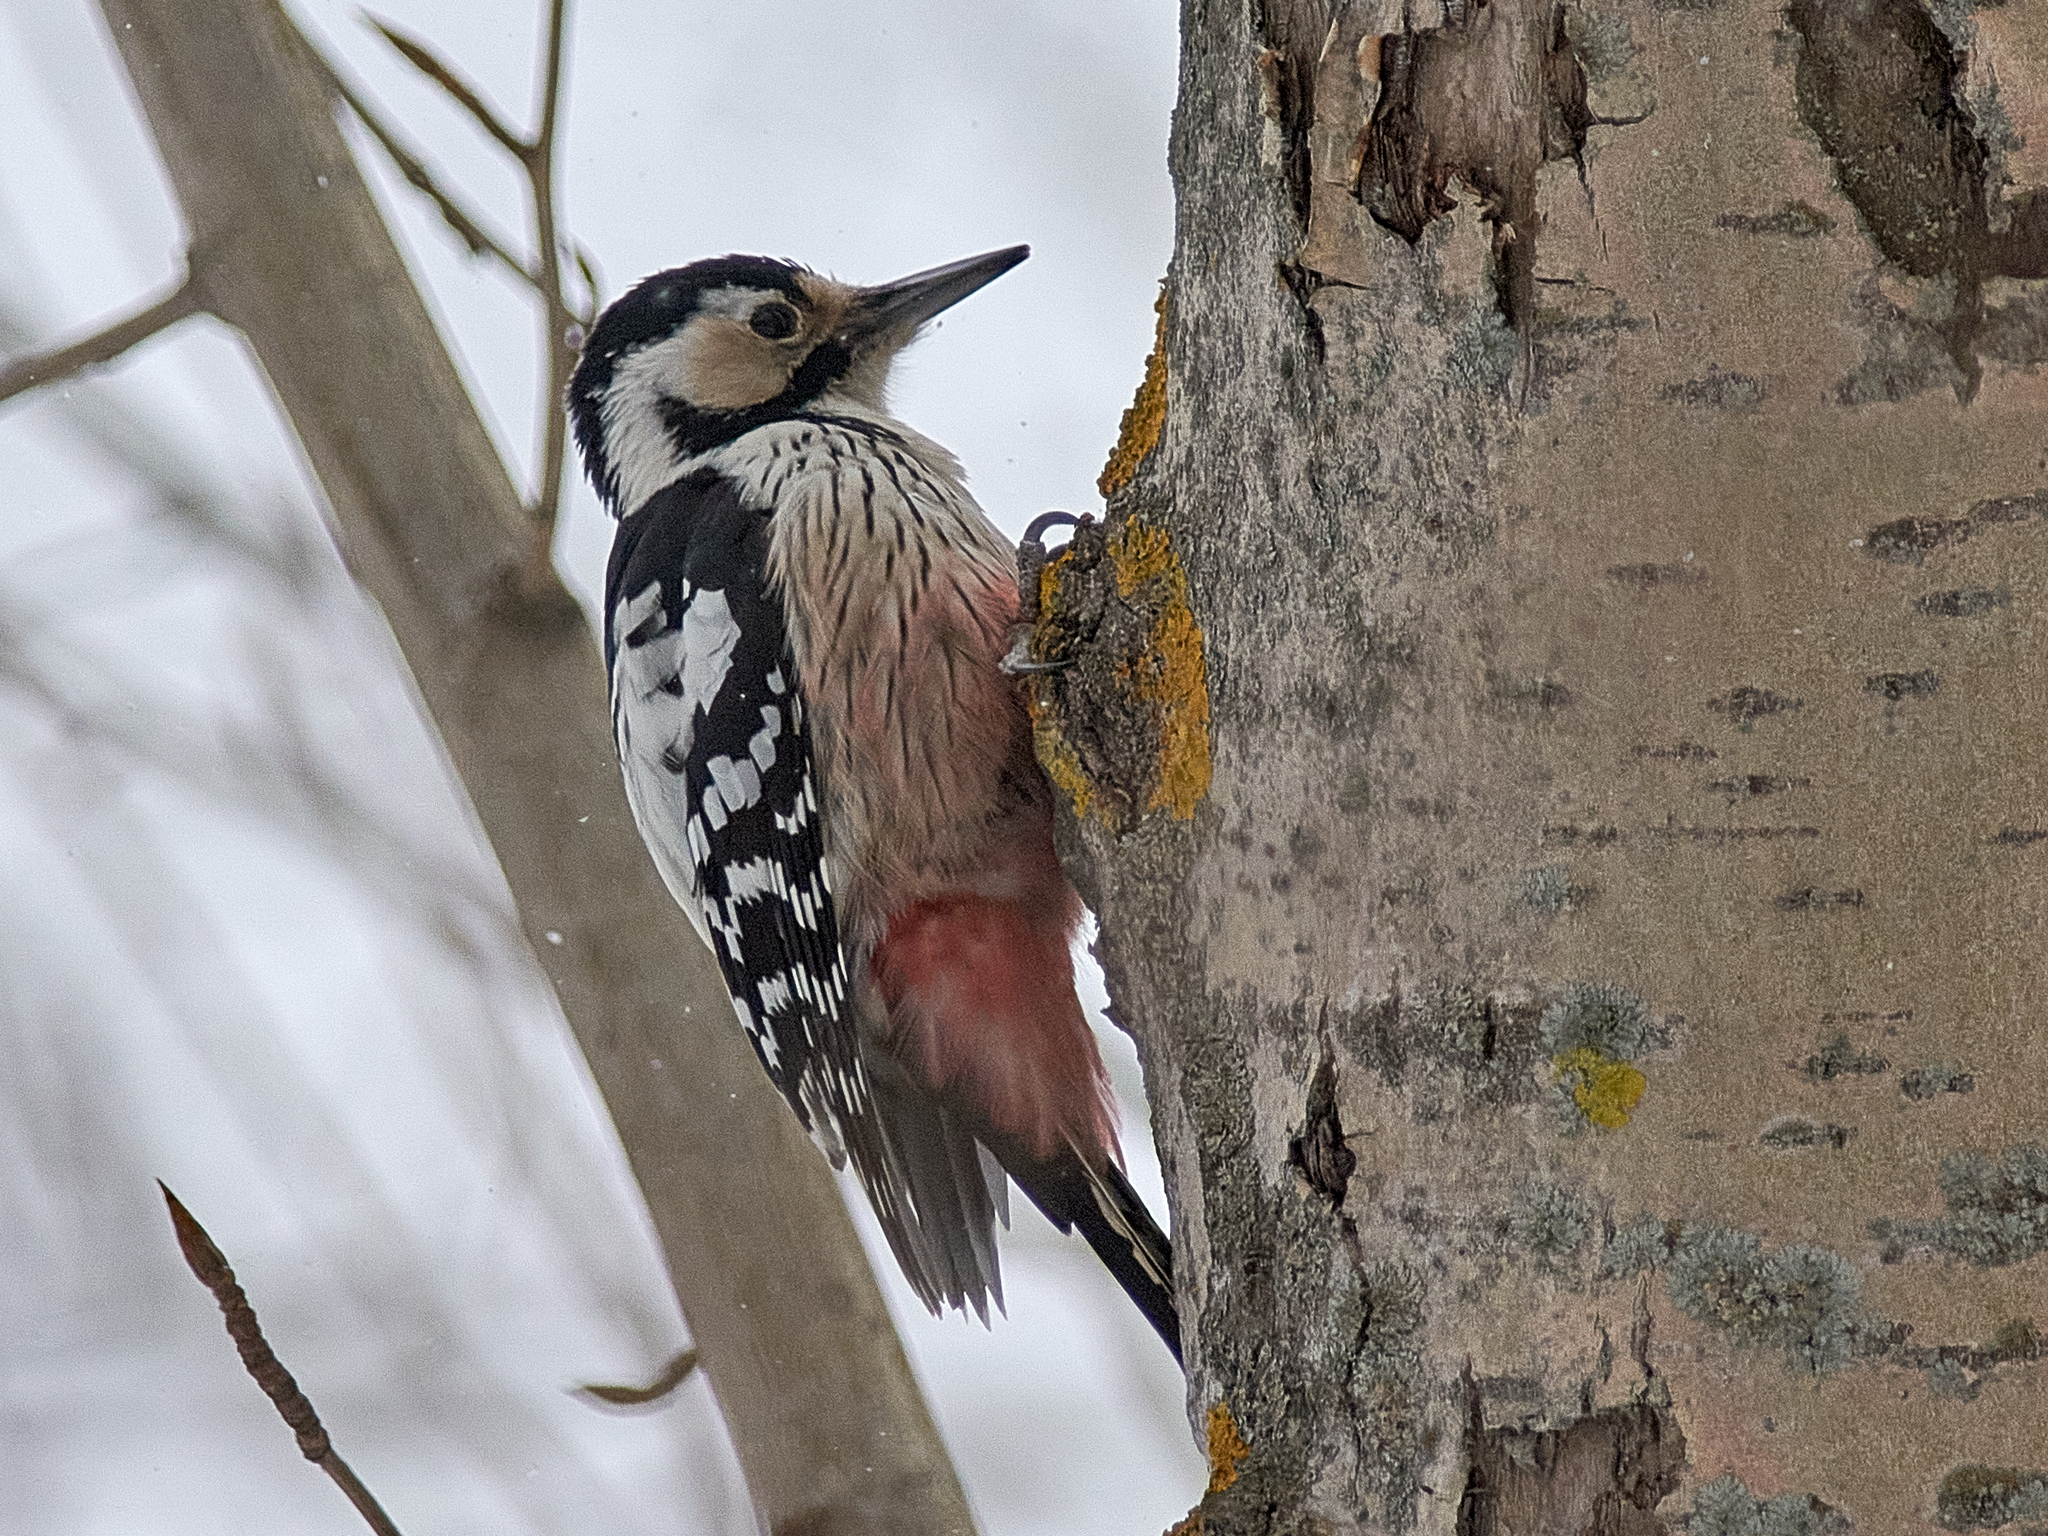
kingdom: Animalia
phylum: Chordata
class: Aves
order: Piciformes
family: Picidae
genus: Dendrocopos
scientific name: Dendrocopos leucotos
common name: White-backed woodpecker
